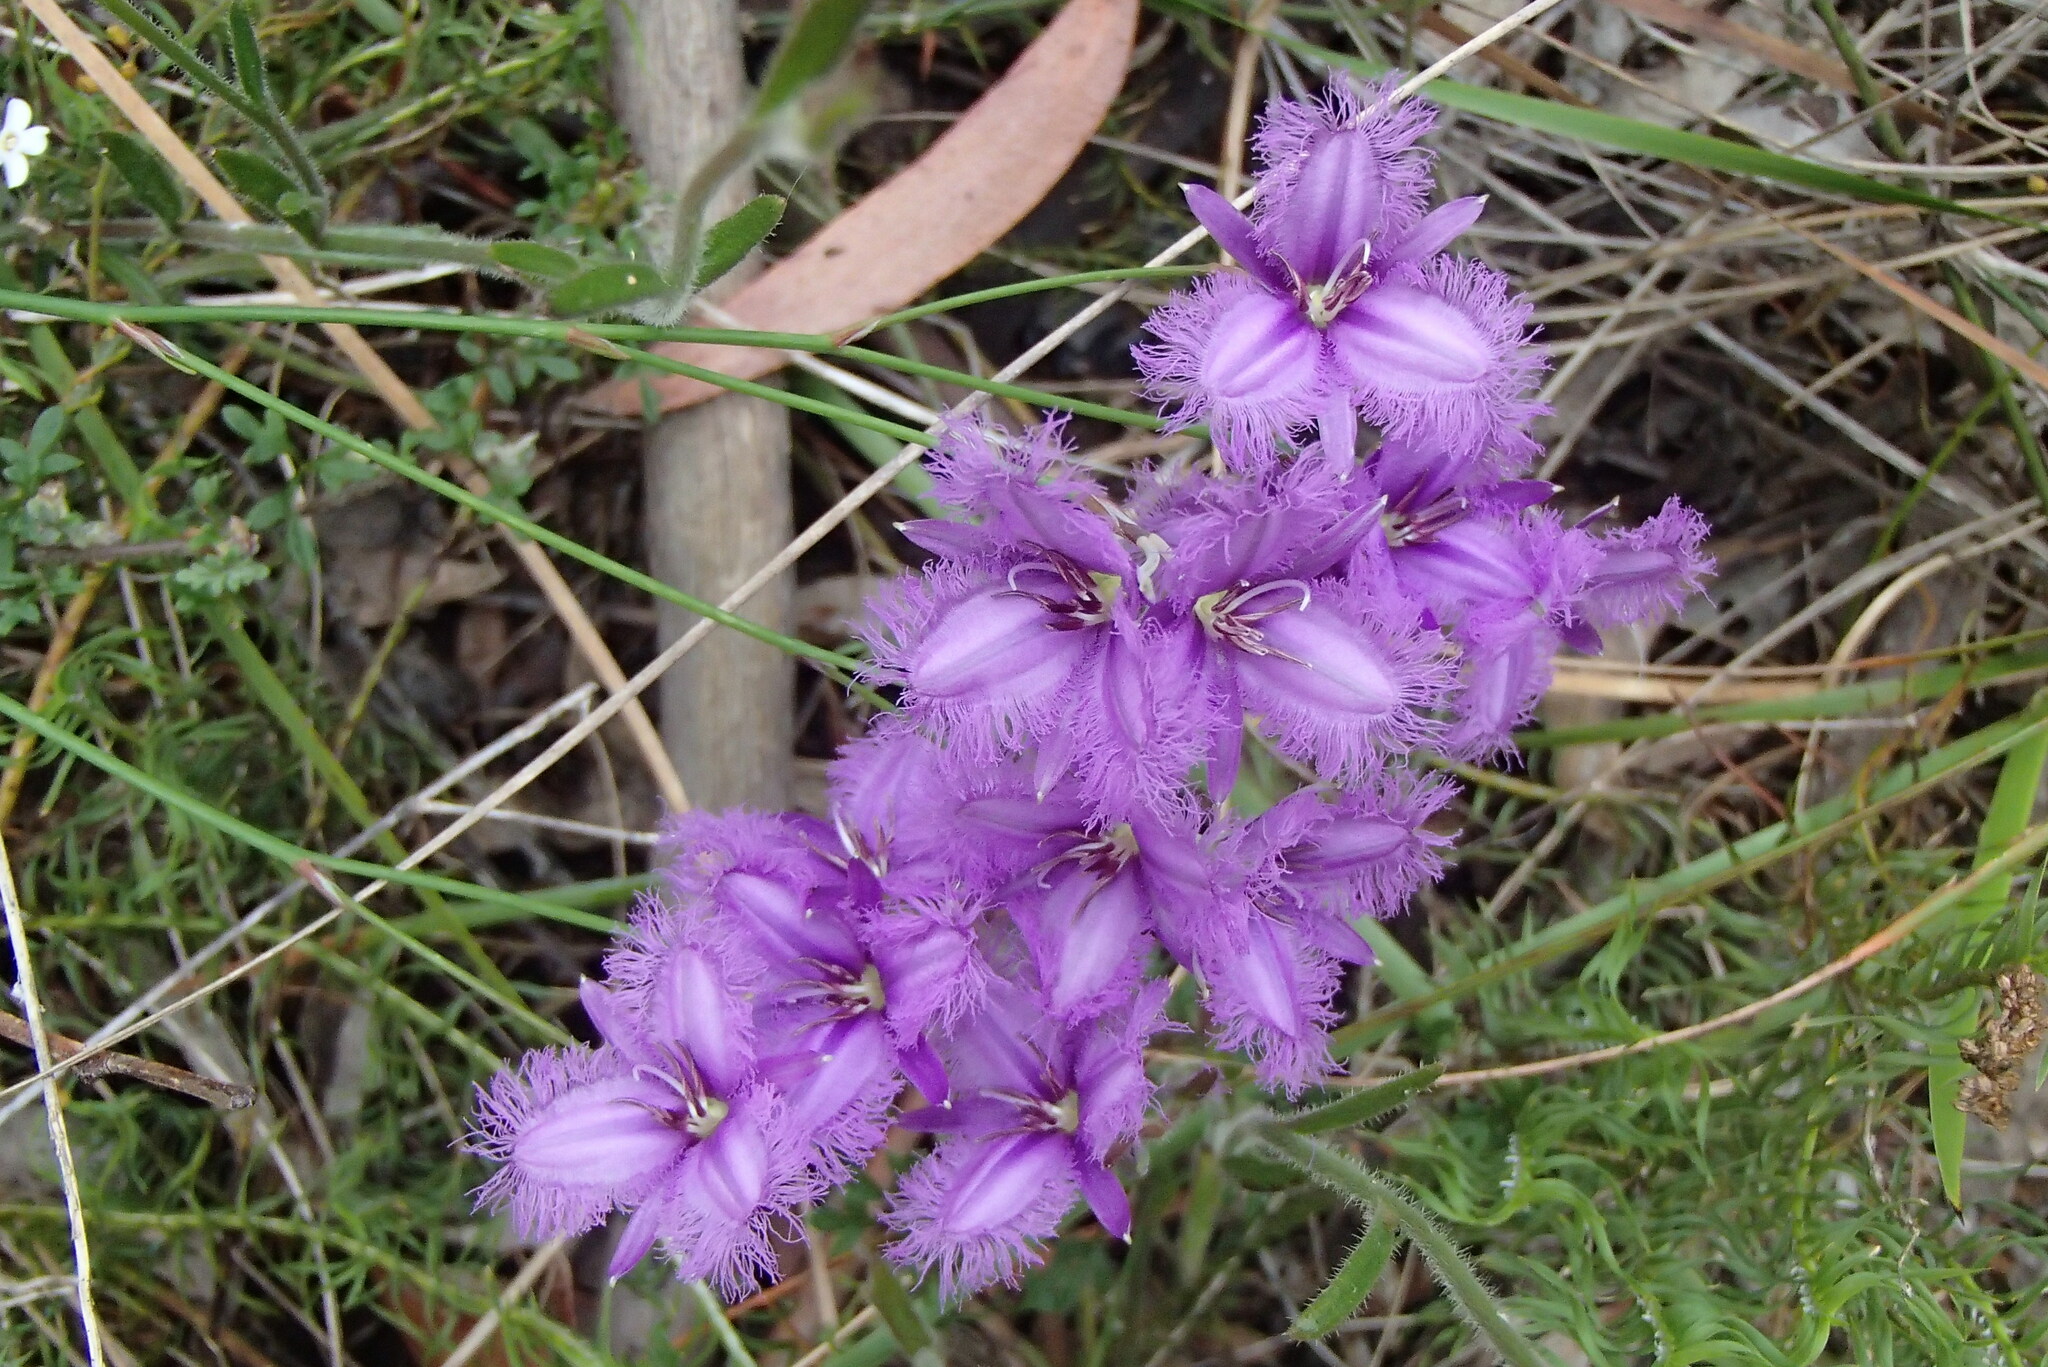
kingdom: Plantae
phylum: Tracheophyta
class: Liliopsida
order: Asparagales
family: Asparagaceae
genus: Thysanotus
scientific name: Thysanotus tuberosus
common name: Common fringed-lily
